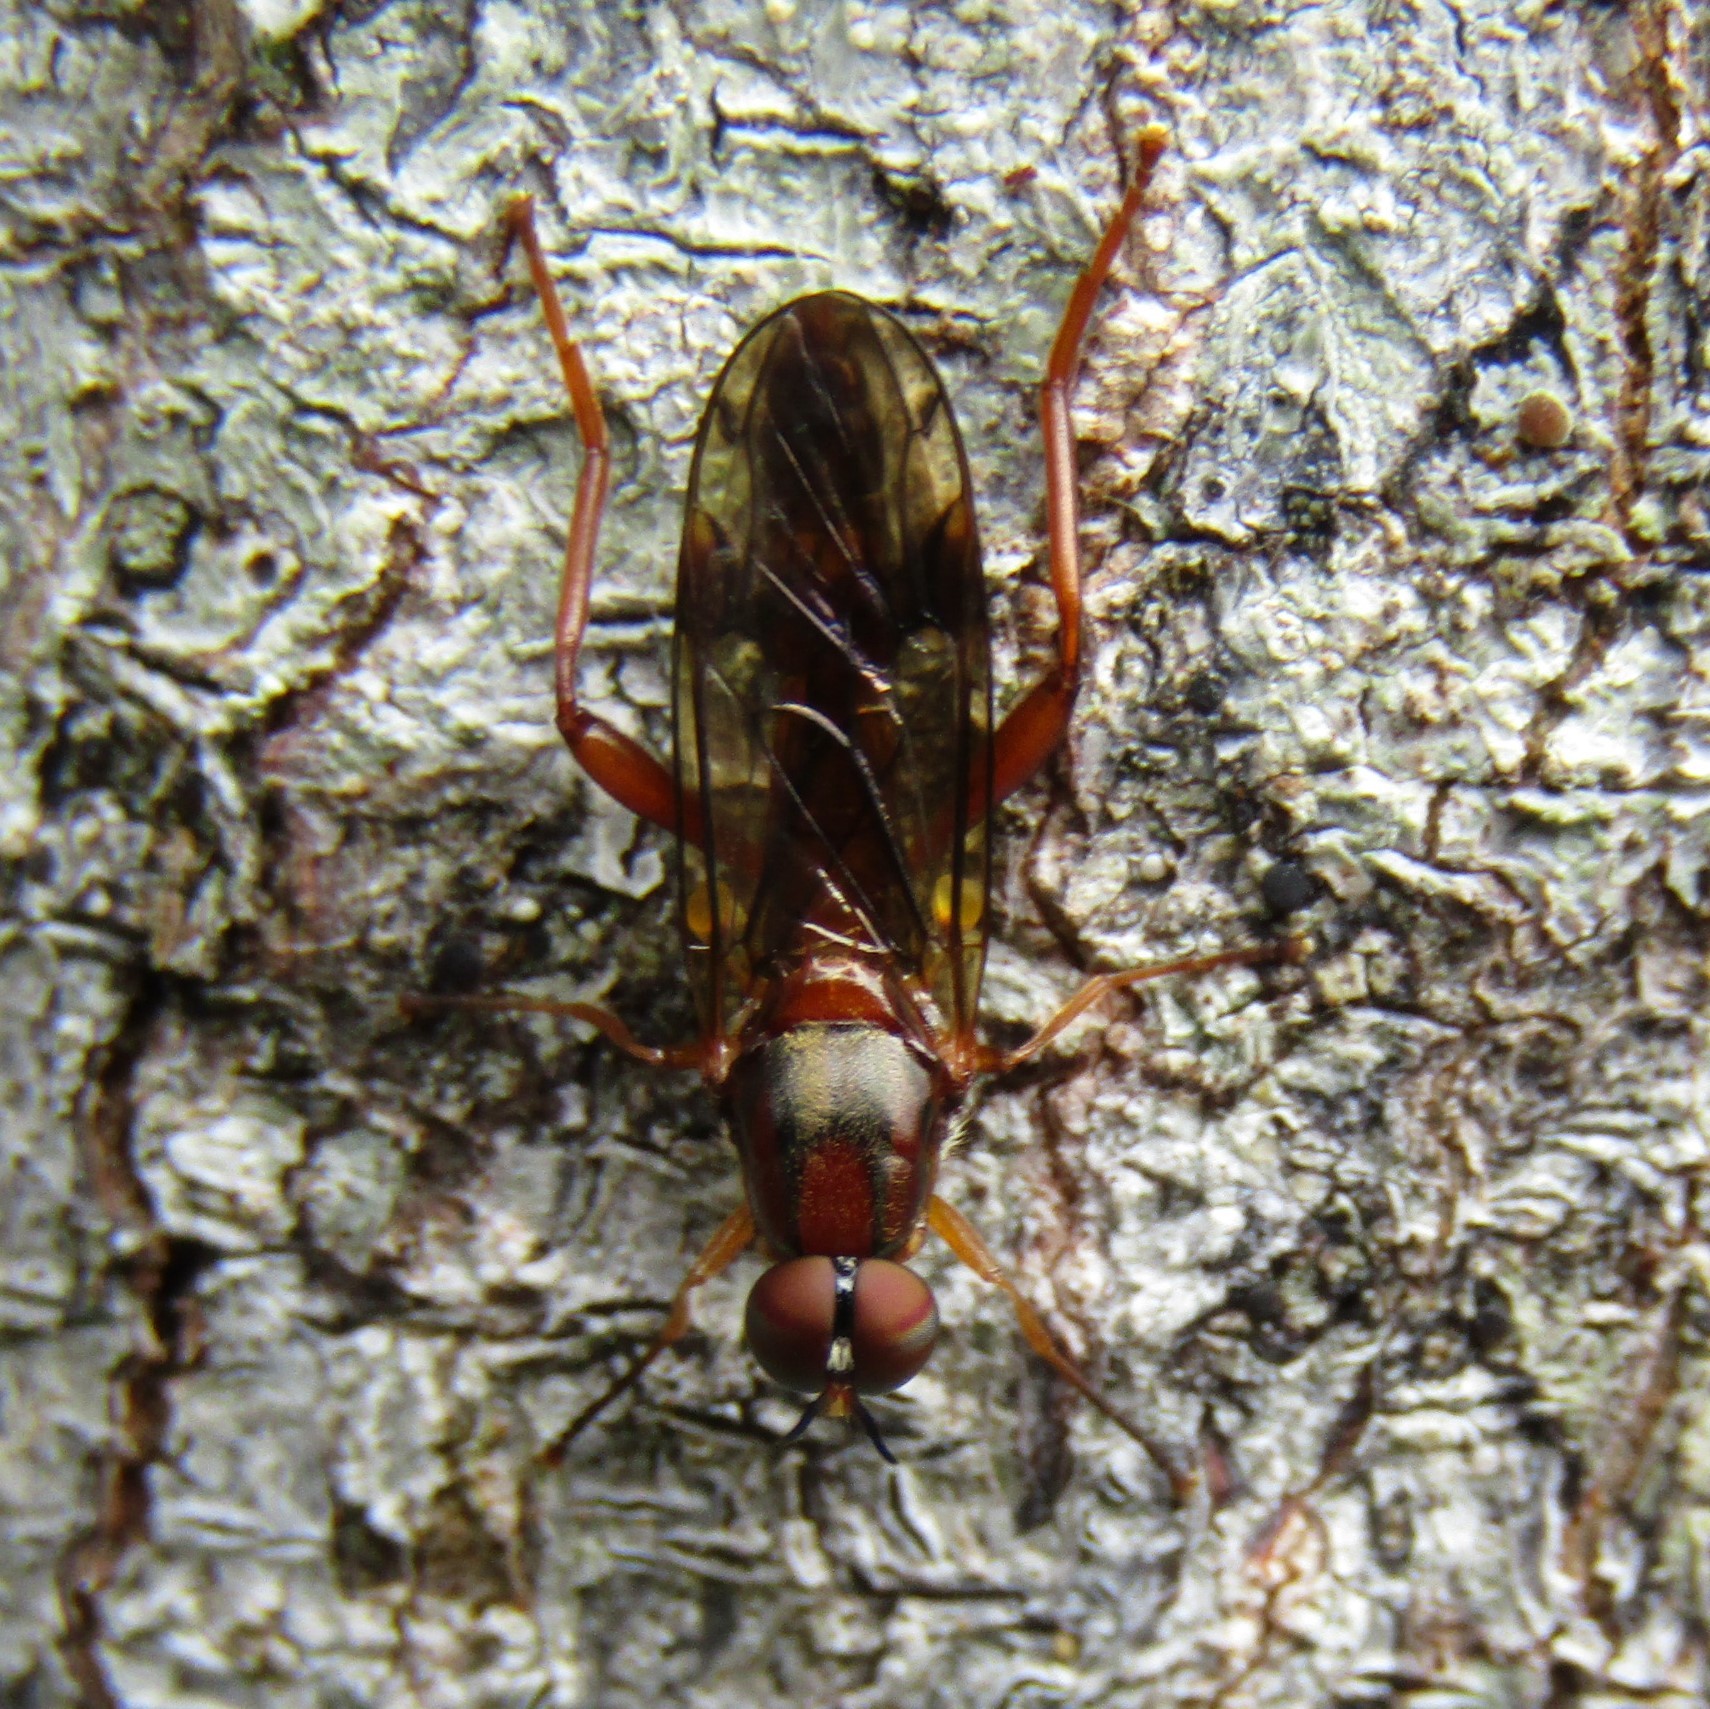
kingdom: Animalia
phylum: Arthropoda
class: Insecta
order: Diptera
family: Stratiomyidae
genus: Benhamyia
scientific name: Benhamyia straznitzkii
